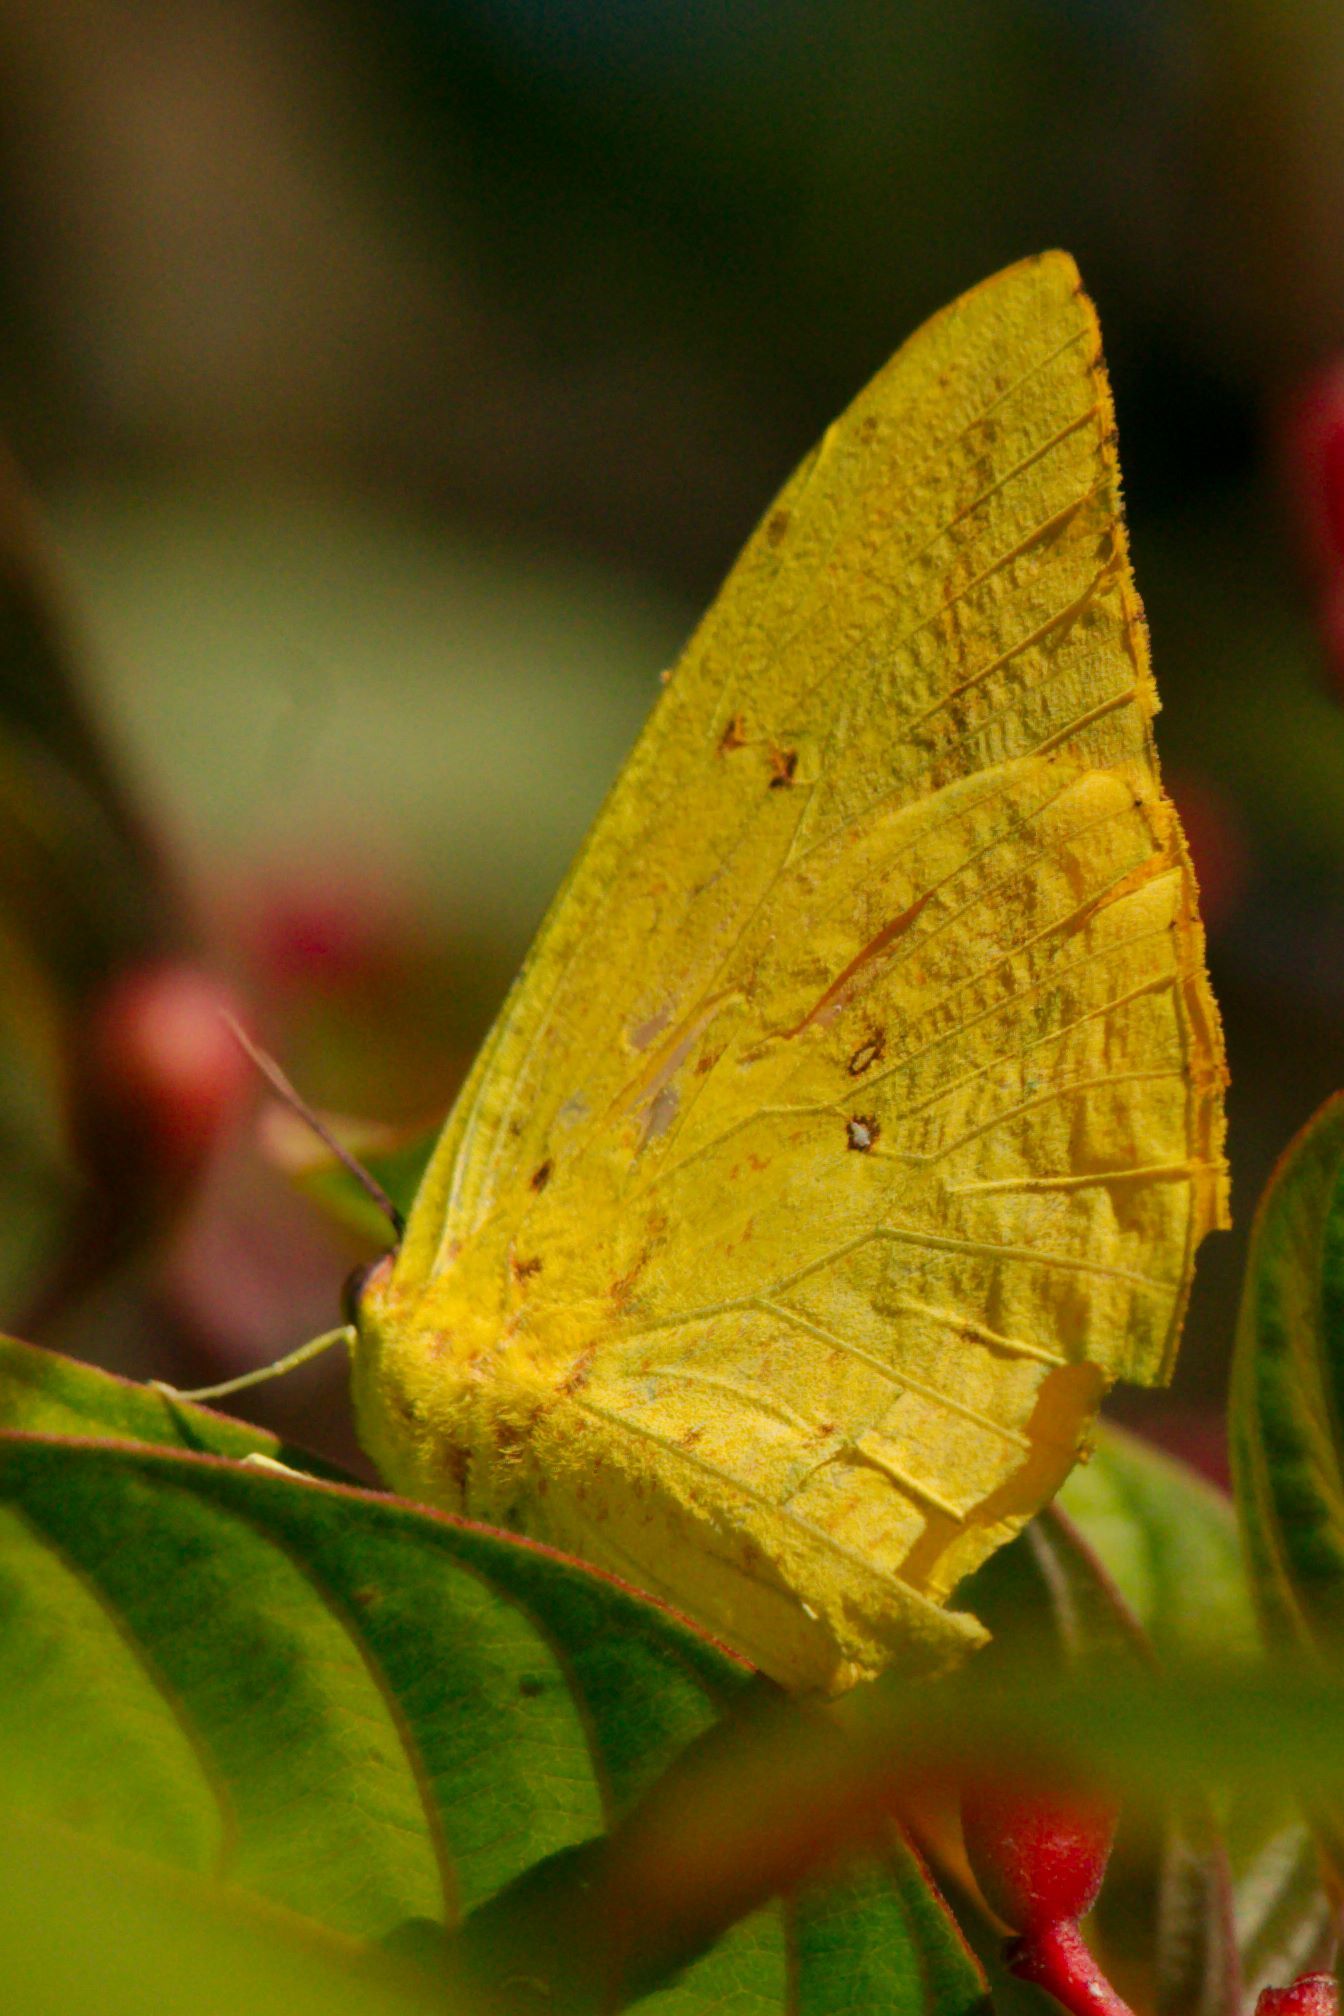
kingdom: Animalia
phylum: Arthropoda
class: Insecta
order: Lepidoptera
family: Pieridae
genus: Phoebis
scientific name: Phoebis agarithe
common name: Large orange sulphur
